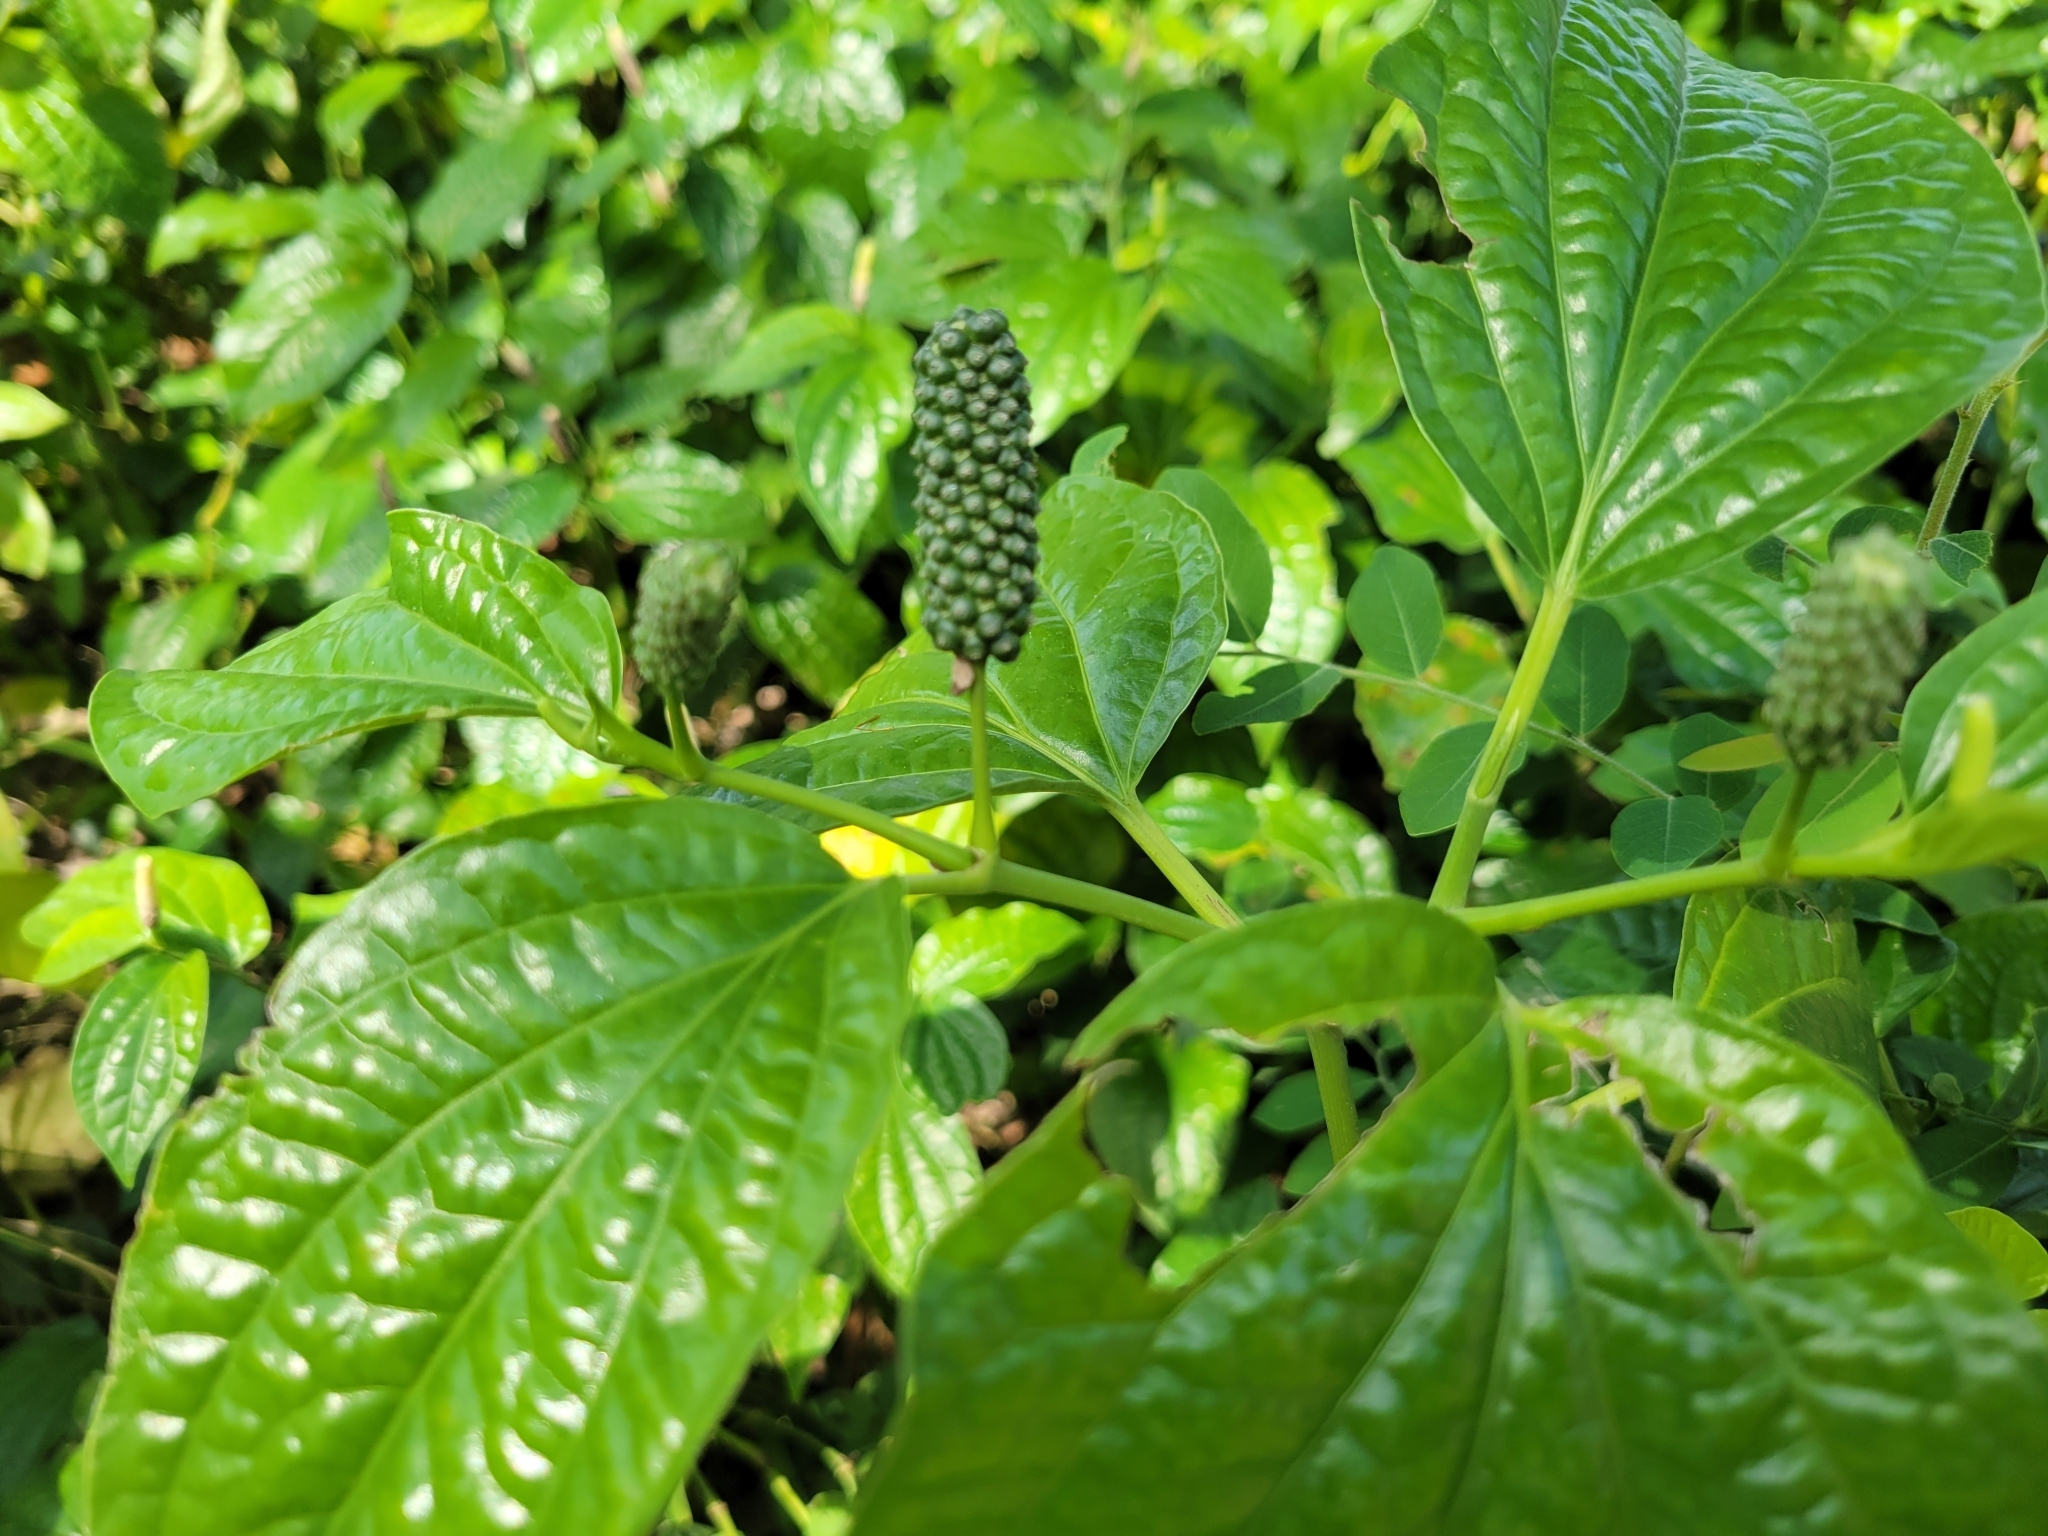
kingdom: Plantae
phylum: Tracheophyta
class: Magnoliopsida
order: Piperales
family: Piperaceae
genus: Piper
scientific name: Piper sarmentosum
